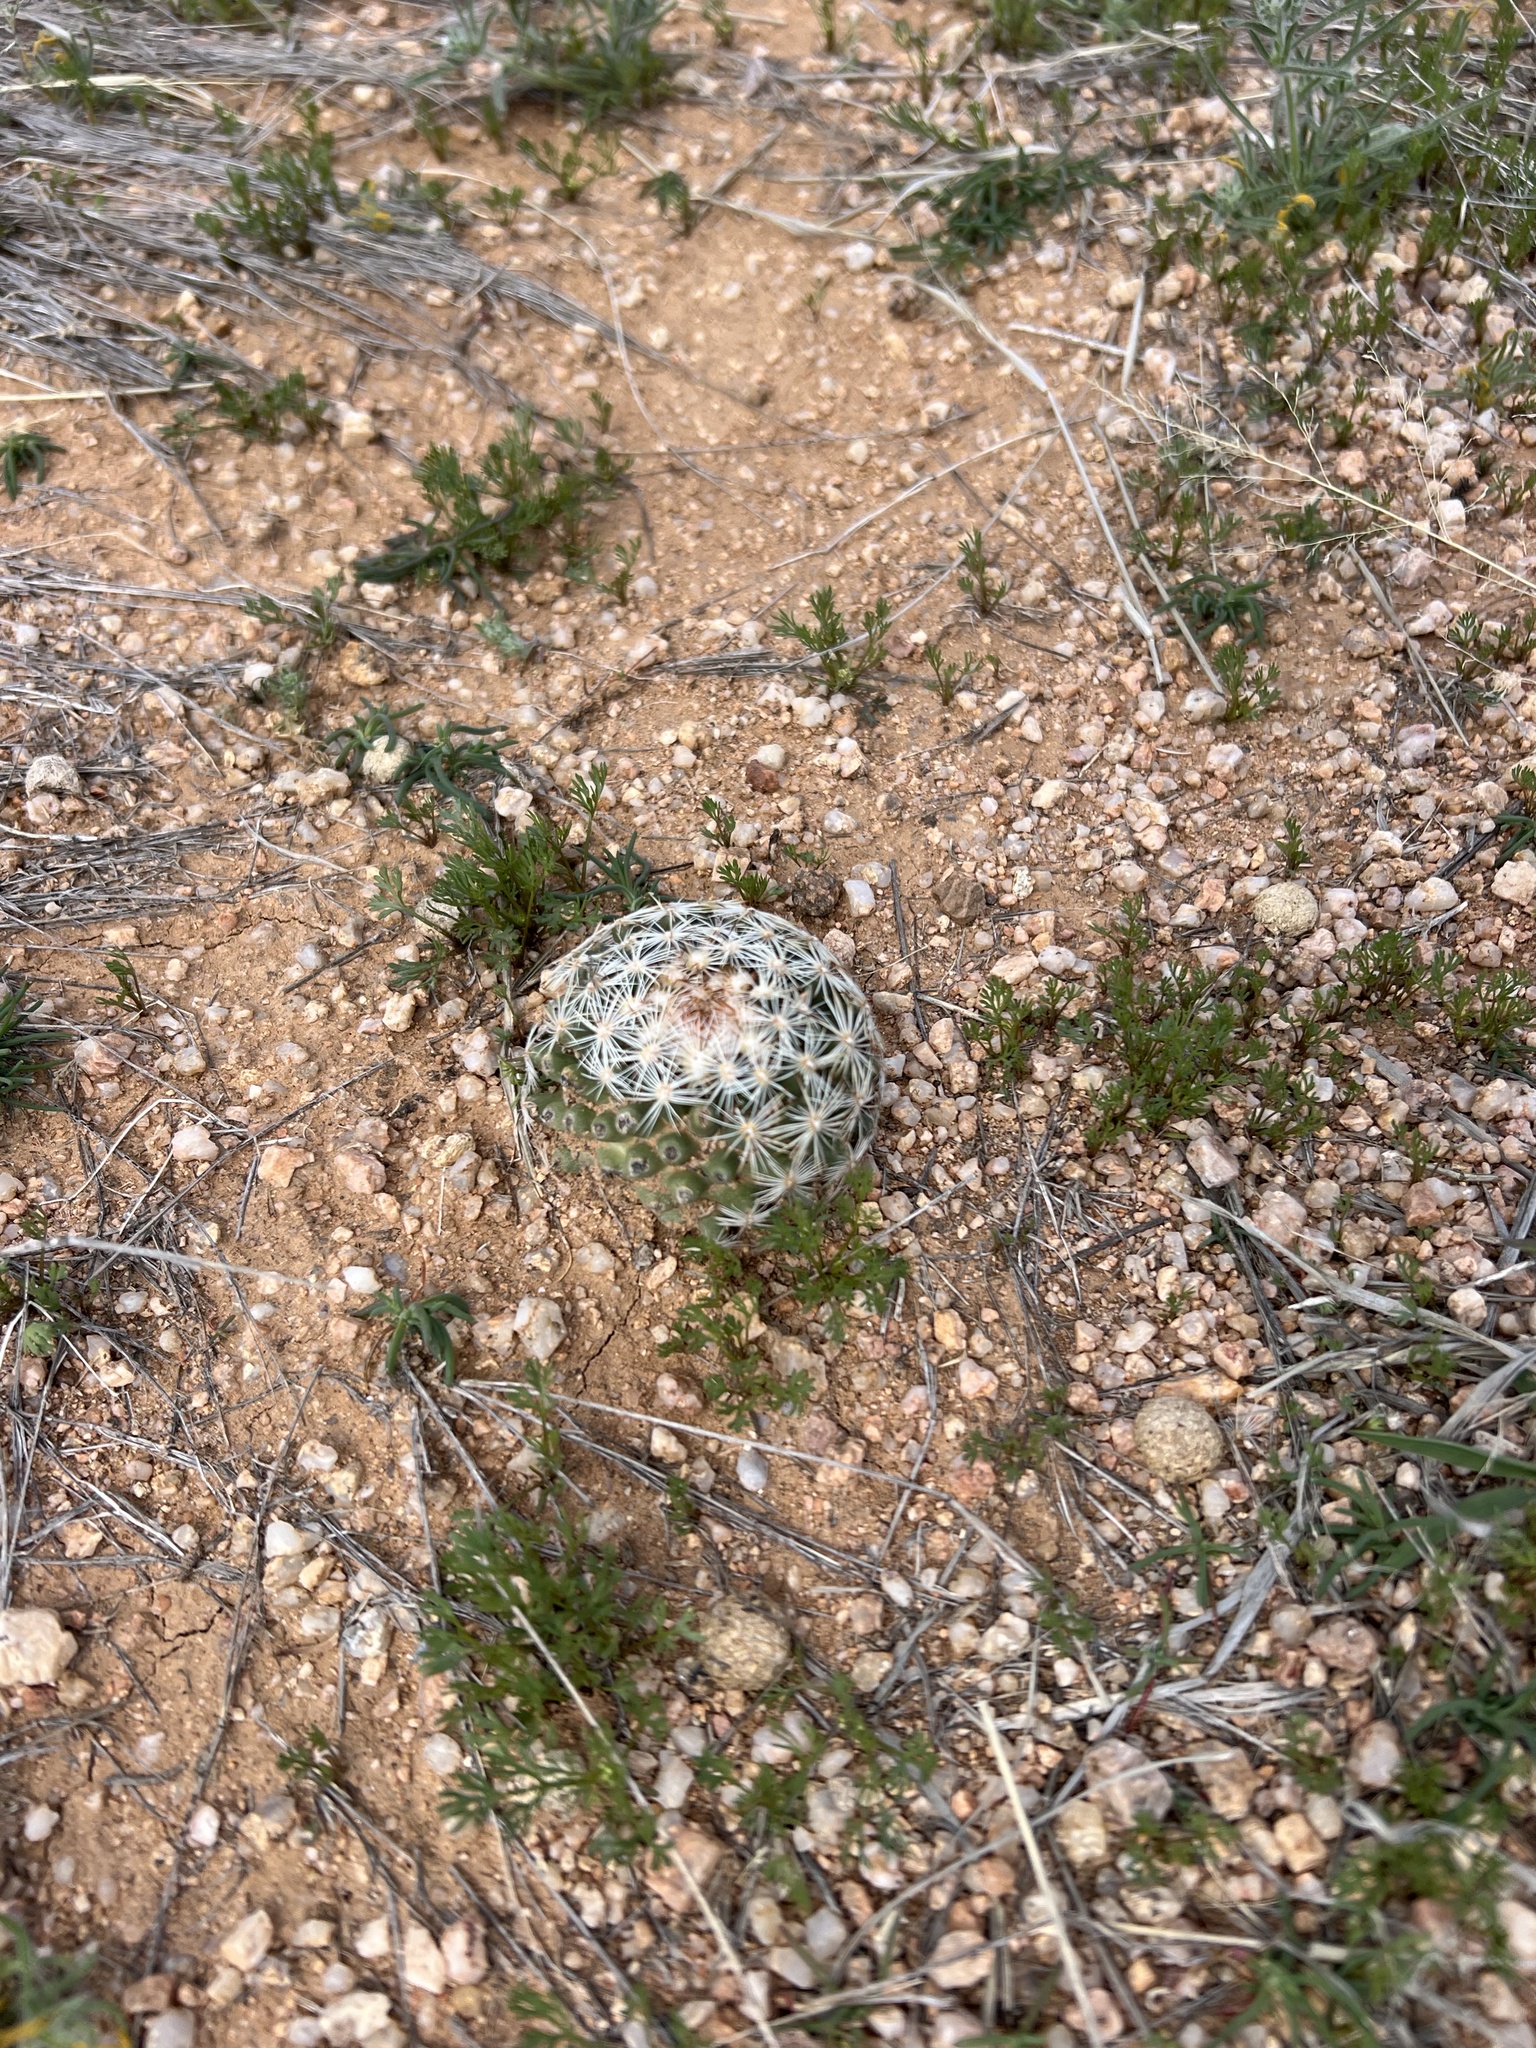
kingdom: Plantae
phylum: Tracheophyta
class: Magnoliopsida
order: Caryophyllales
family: Cactaceae
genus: Pelecyphora
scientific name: Pelecyphora vivipara
